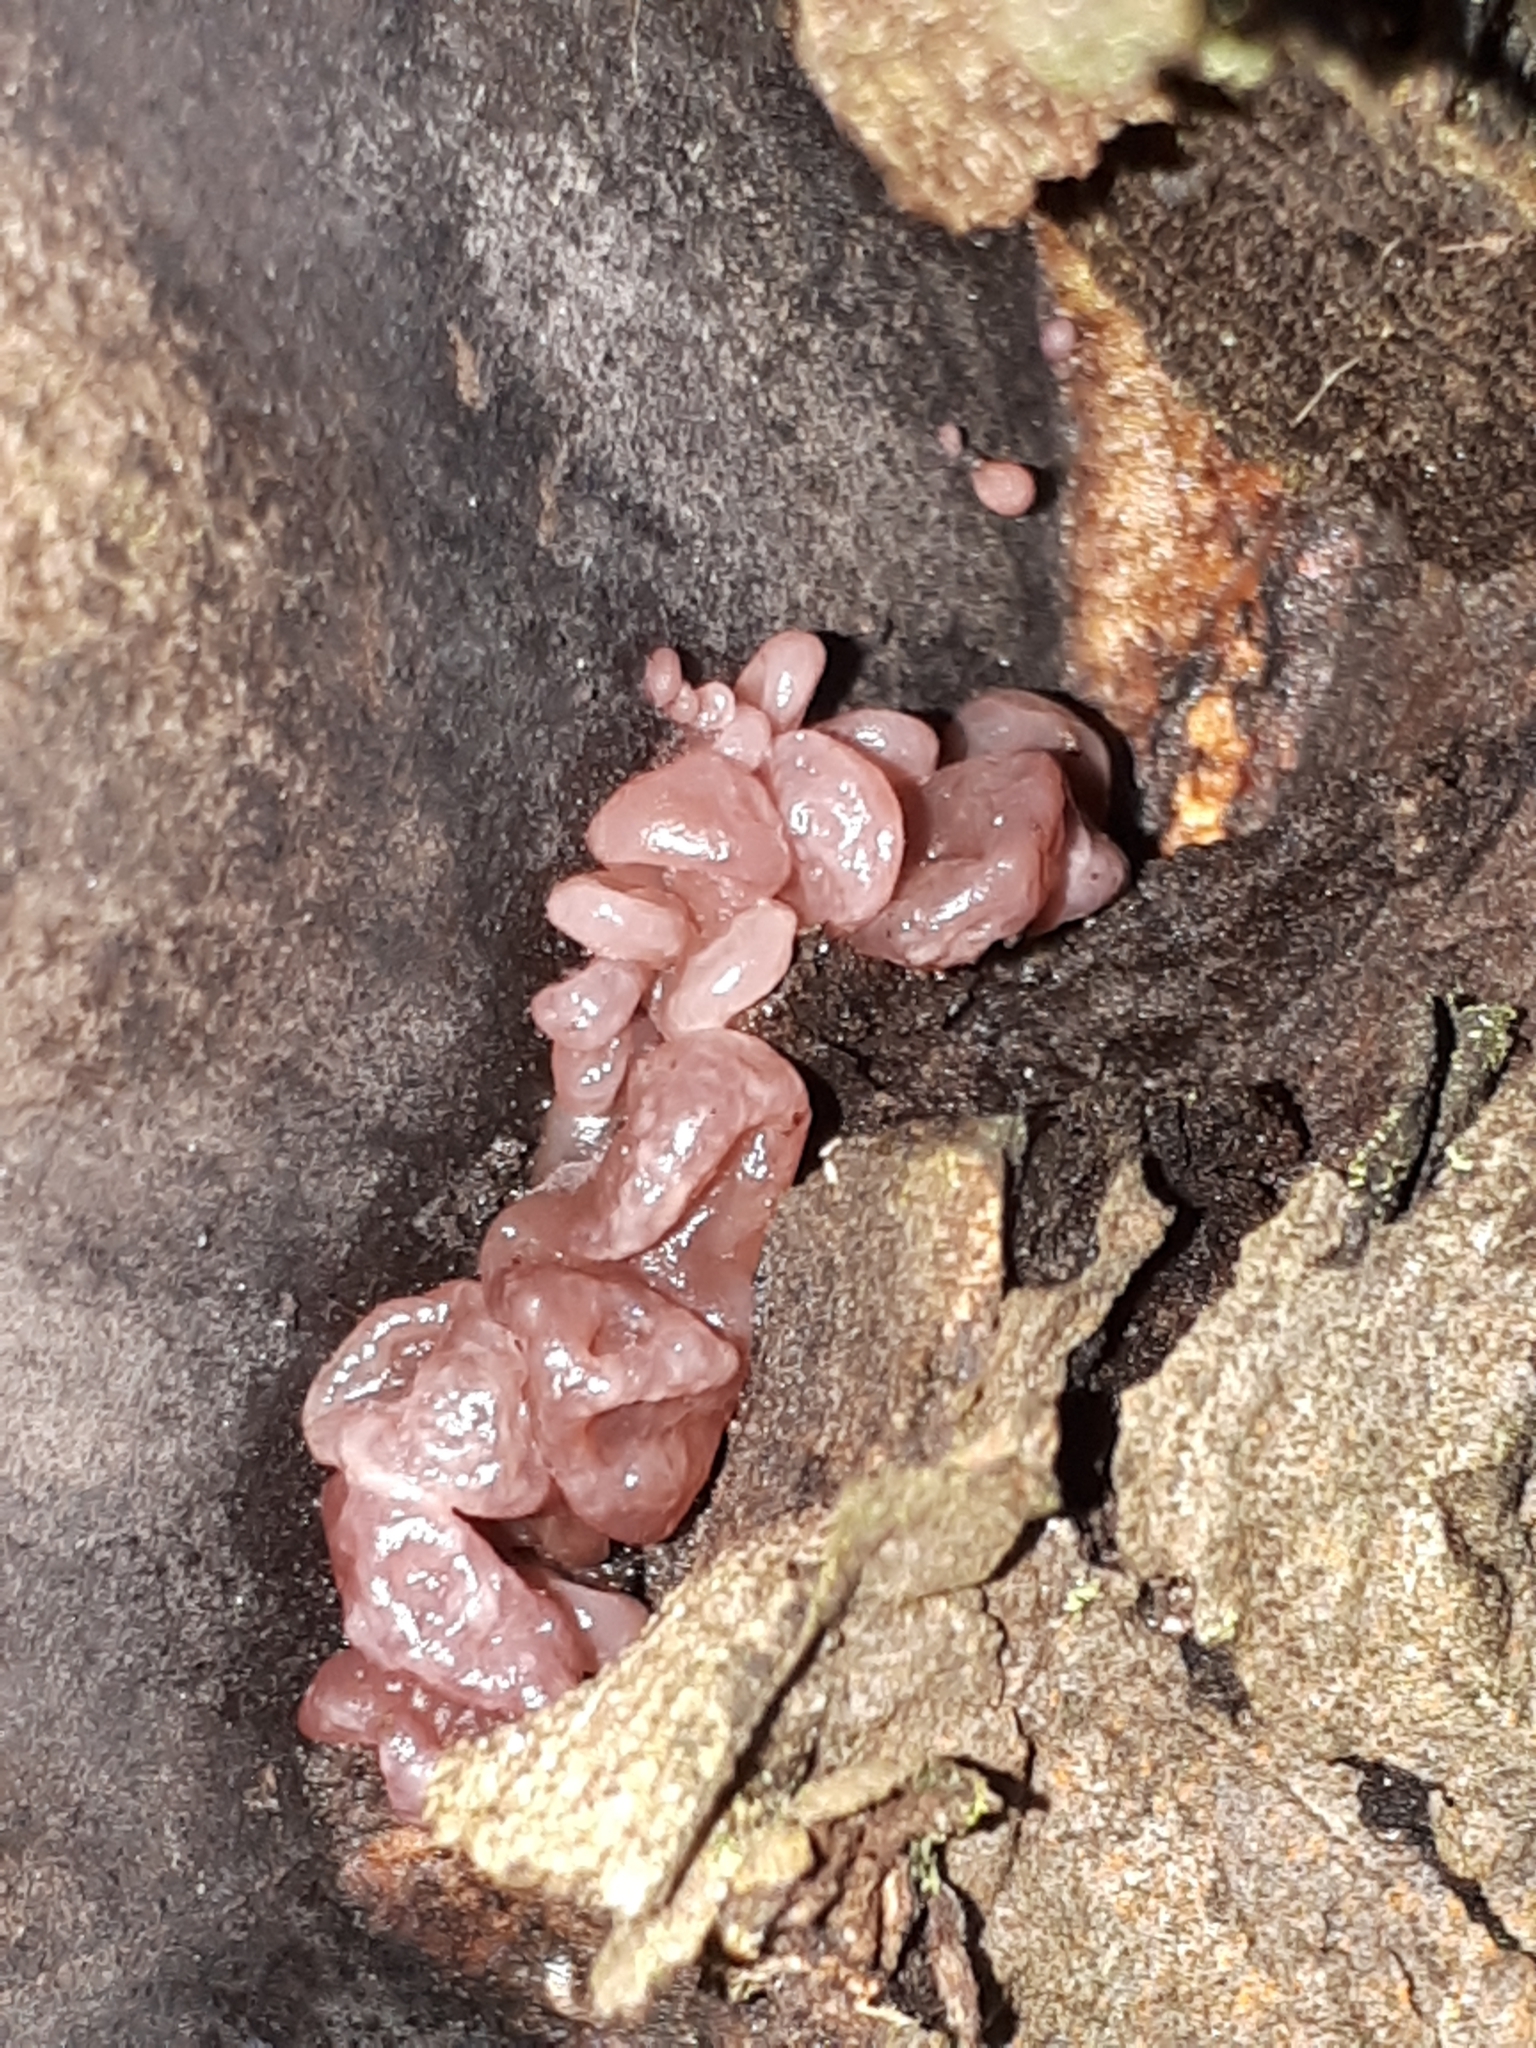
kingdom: Fungi
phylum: Ascomycota
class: Leotiomycetes
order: Helotiales
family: Gelatinodiscaceae
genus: Ascocoryne
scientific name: Ascocoryne sarcoides
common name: Purple jellydisc
